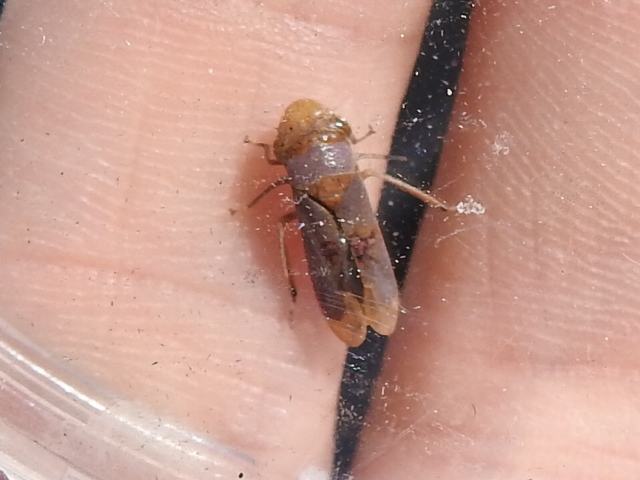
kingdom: Animalia
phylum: Arthropoda
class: Insecta
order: Hemiptera
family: Cicadellidae
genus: Oncometopia
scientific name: Oncometopia hamiltoni
